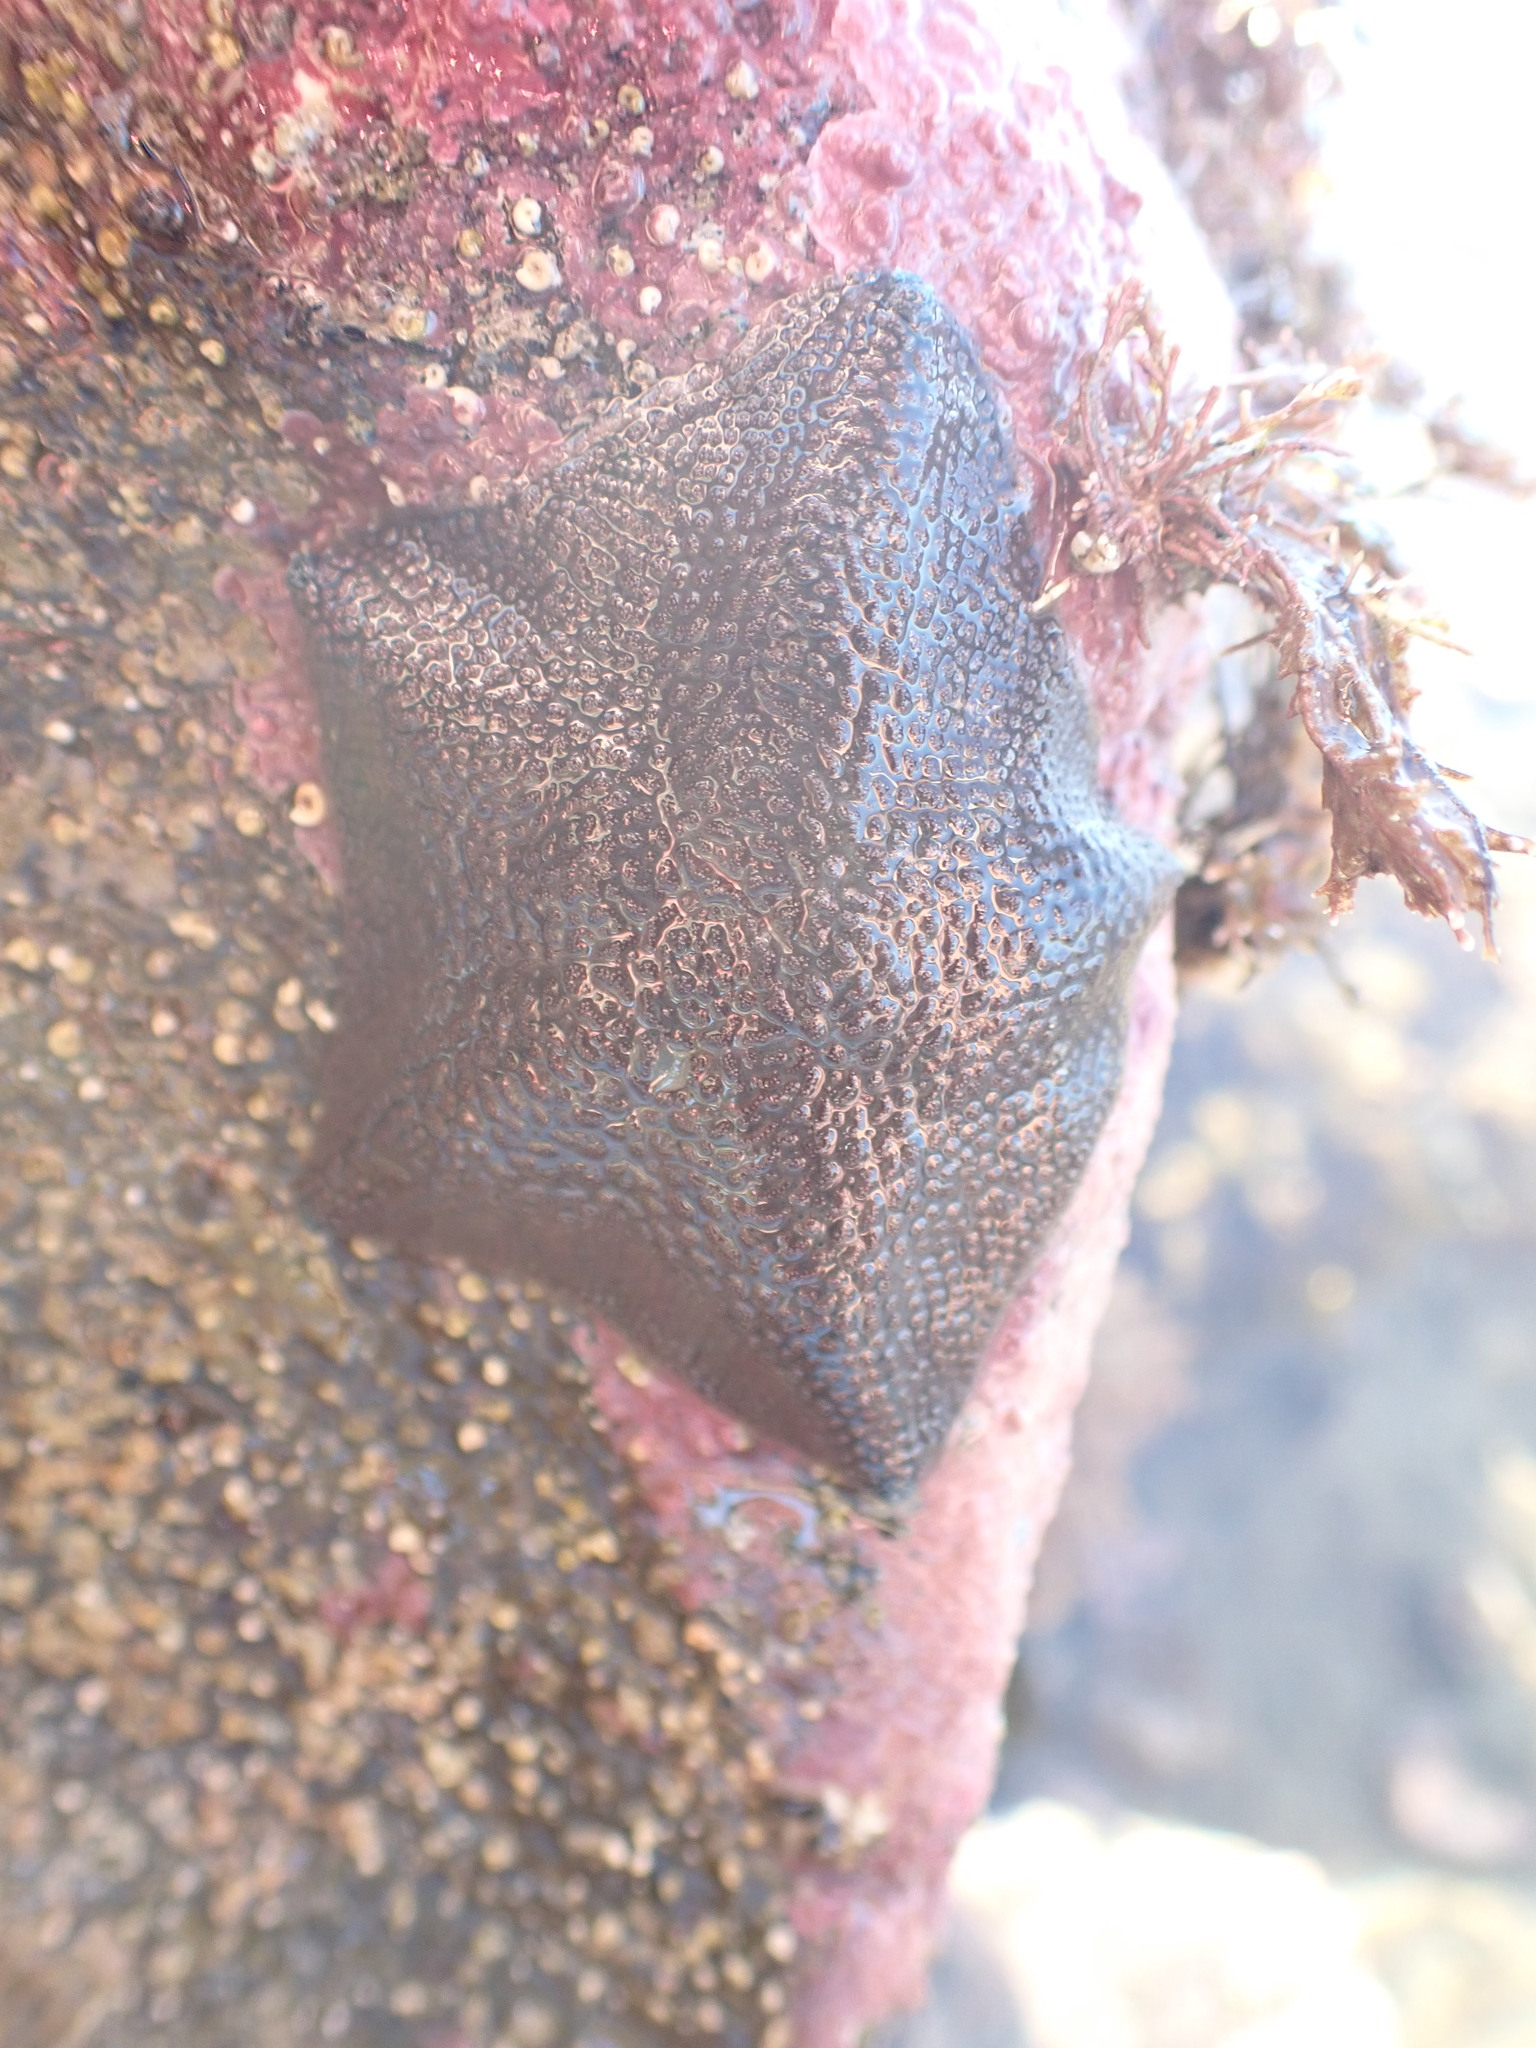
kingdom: Animalia
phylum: Echinodermata
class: Asteroidea
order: Valvatida
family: Asterinidae
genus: Patiriella
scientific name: Patiriella regularis
